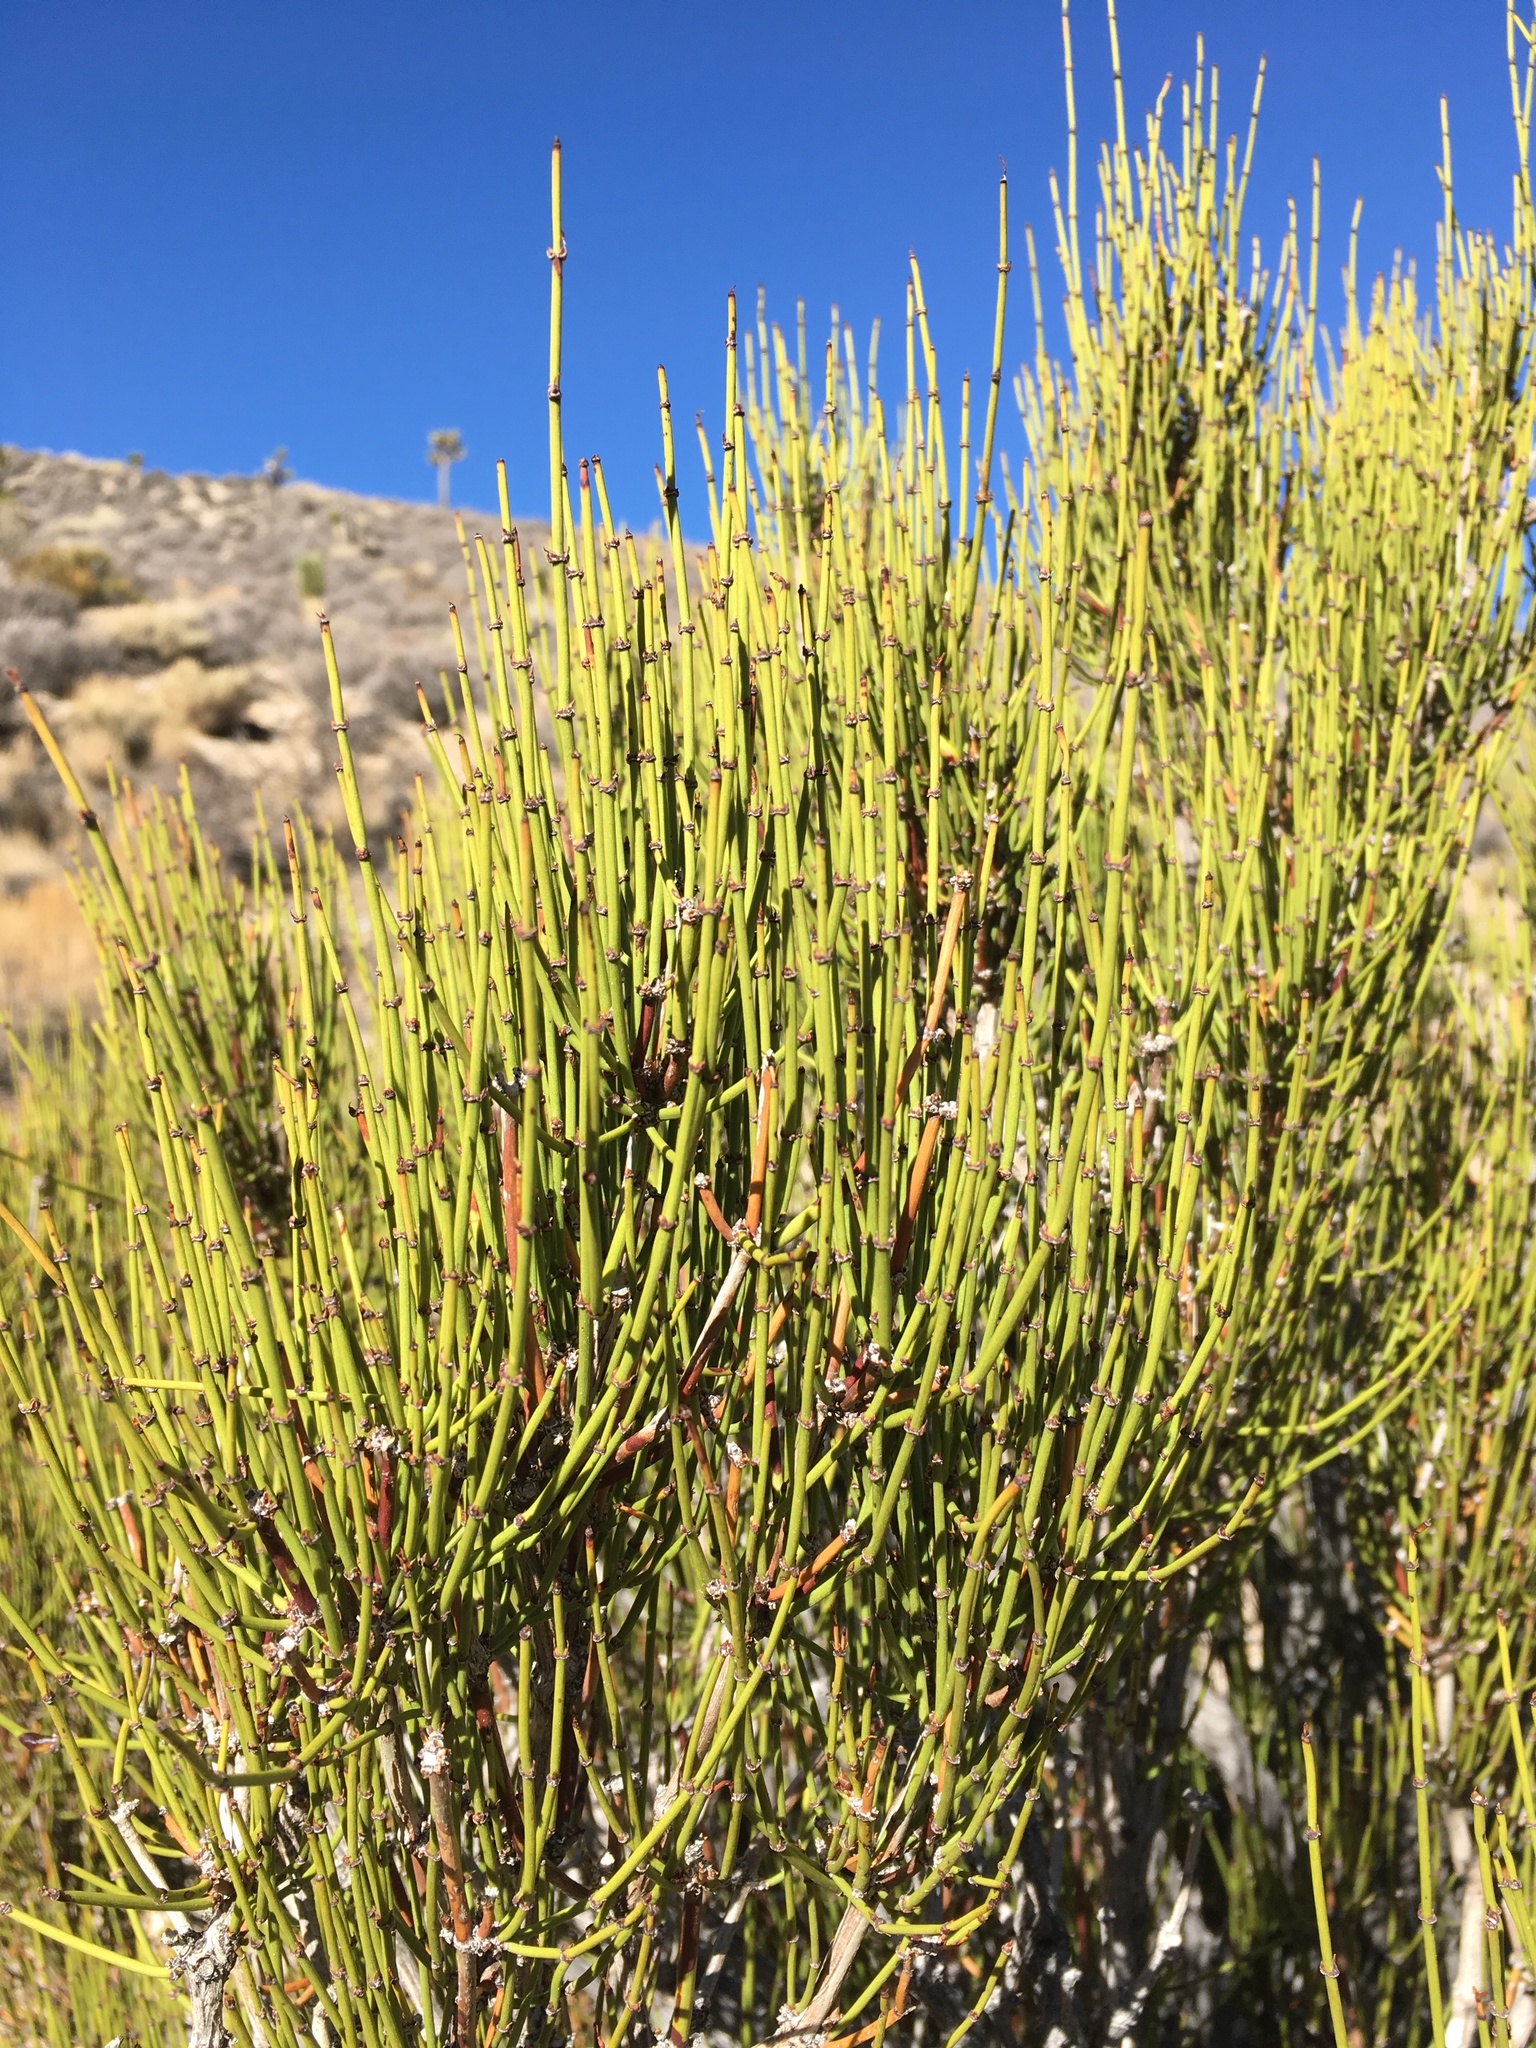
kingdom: Plantae
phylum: Tracheophyta
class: Gnetopsida
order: Ephedrales
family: Ephedraceae
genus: Ephedra
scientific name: Ephedra viridis
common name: Green ephedra
